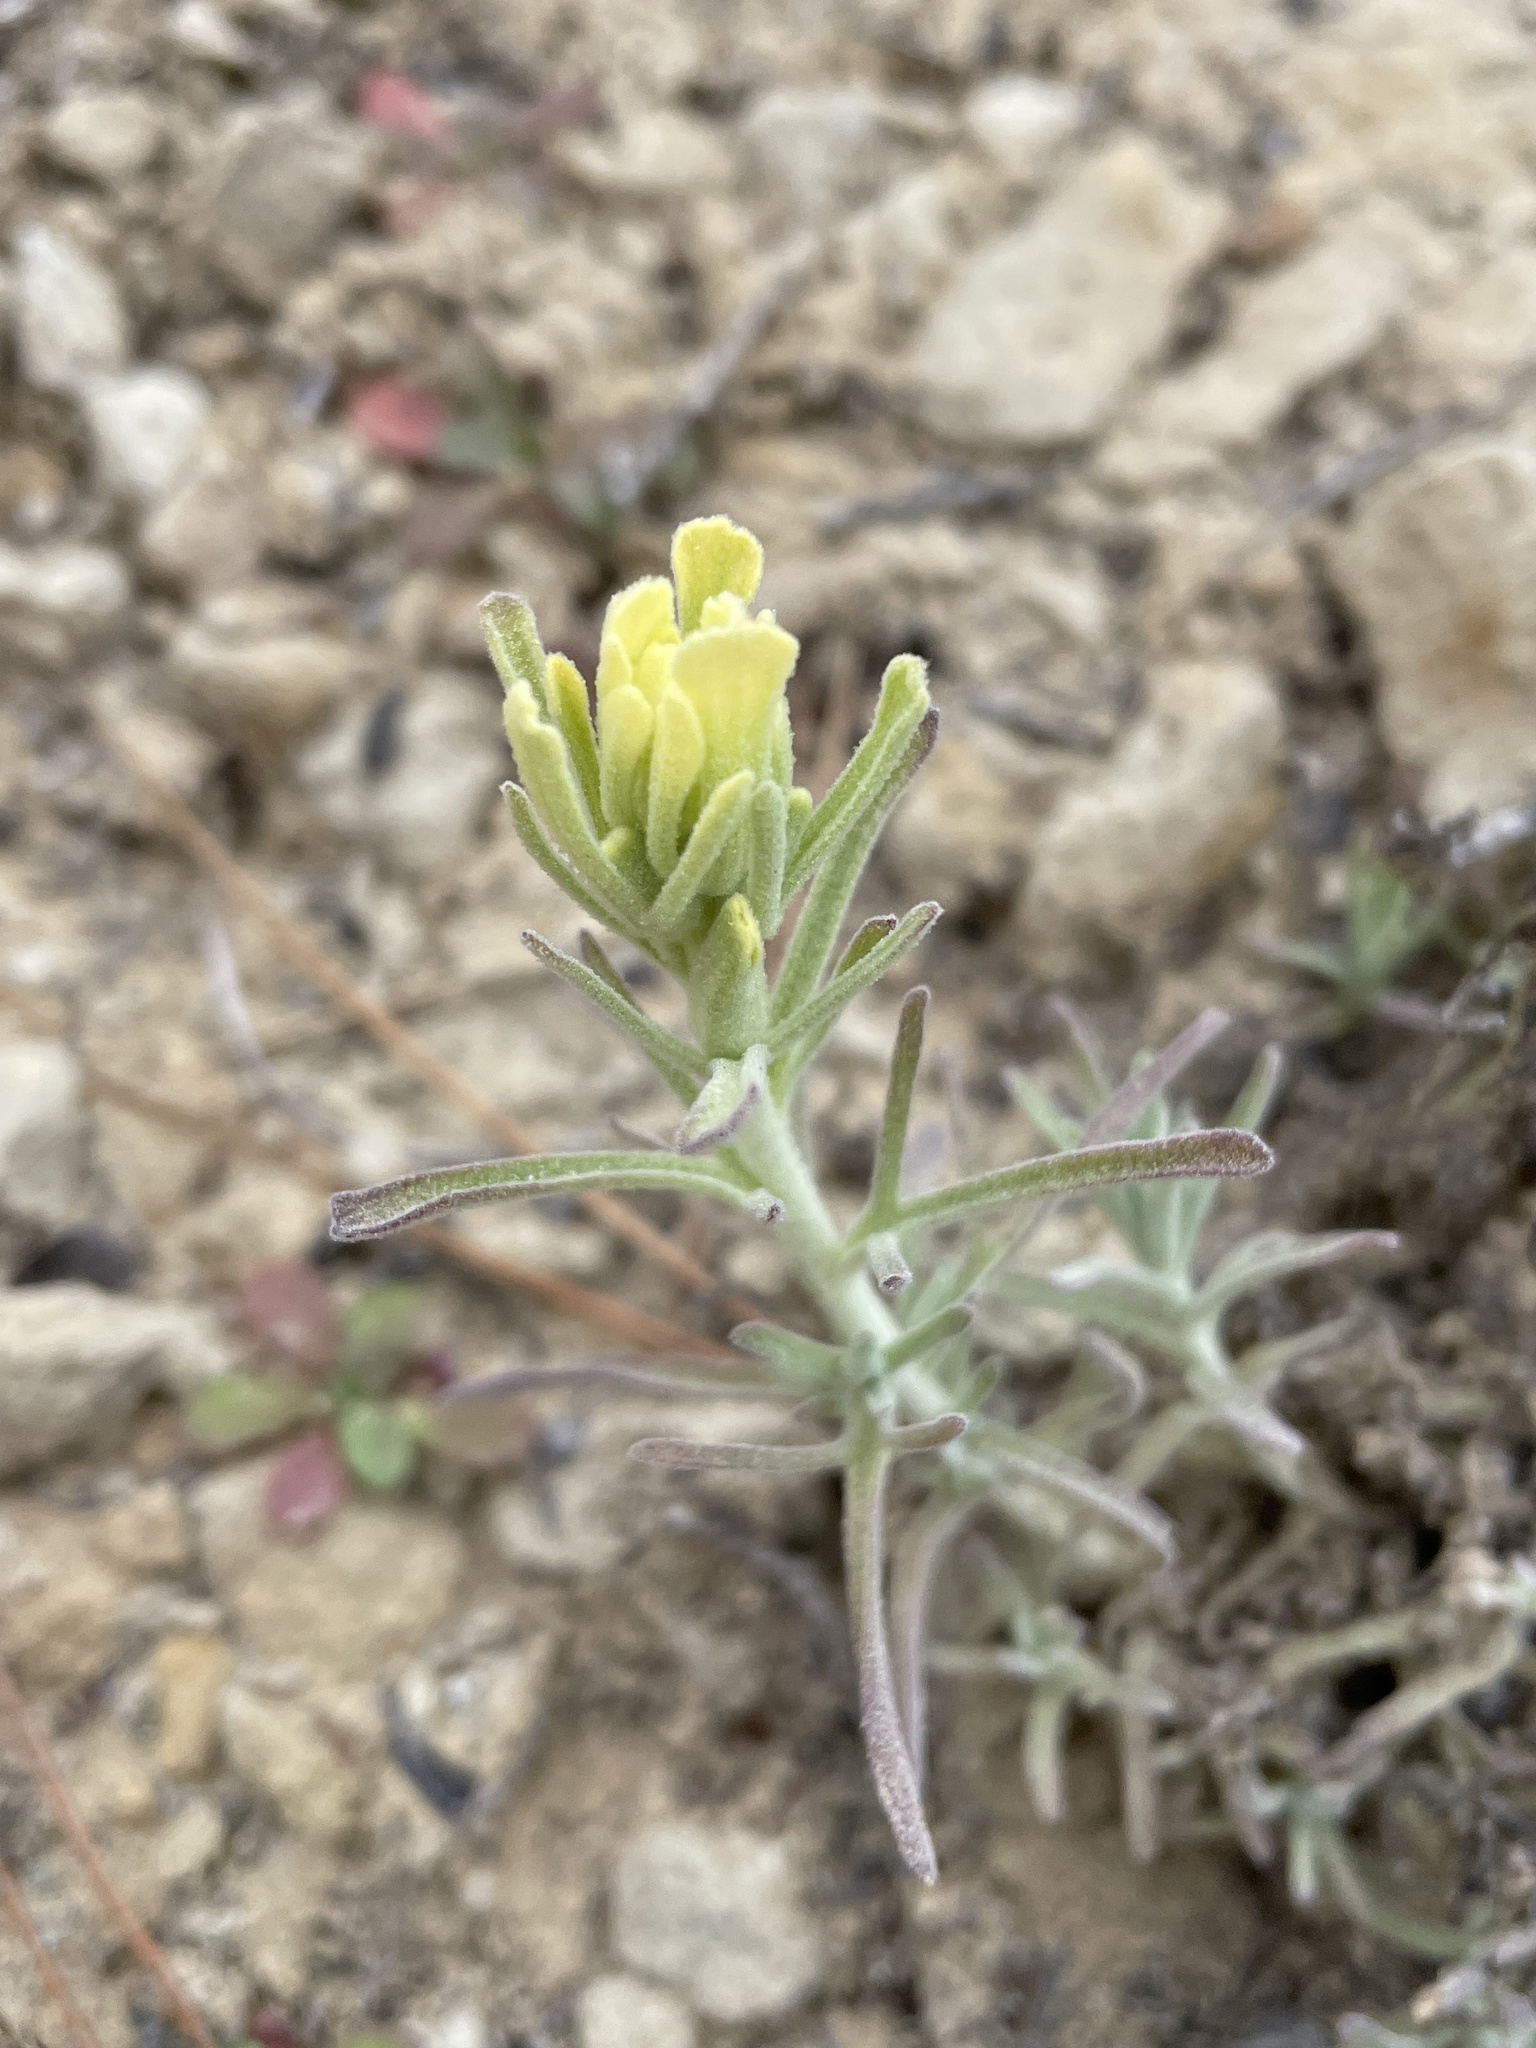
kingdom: Plantae
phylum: Tracheophyta
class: Magnoliopsida
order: Lamiales
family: Orobanchaceae
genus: Castilleja
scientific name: Castilleja foliolosa
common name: Woolly indian paintbrush
